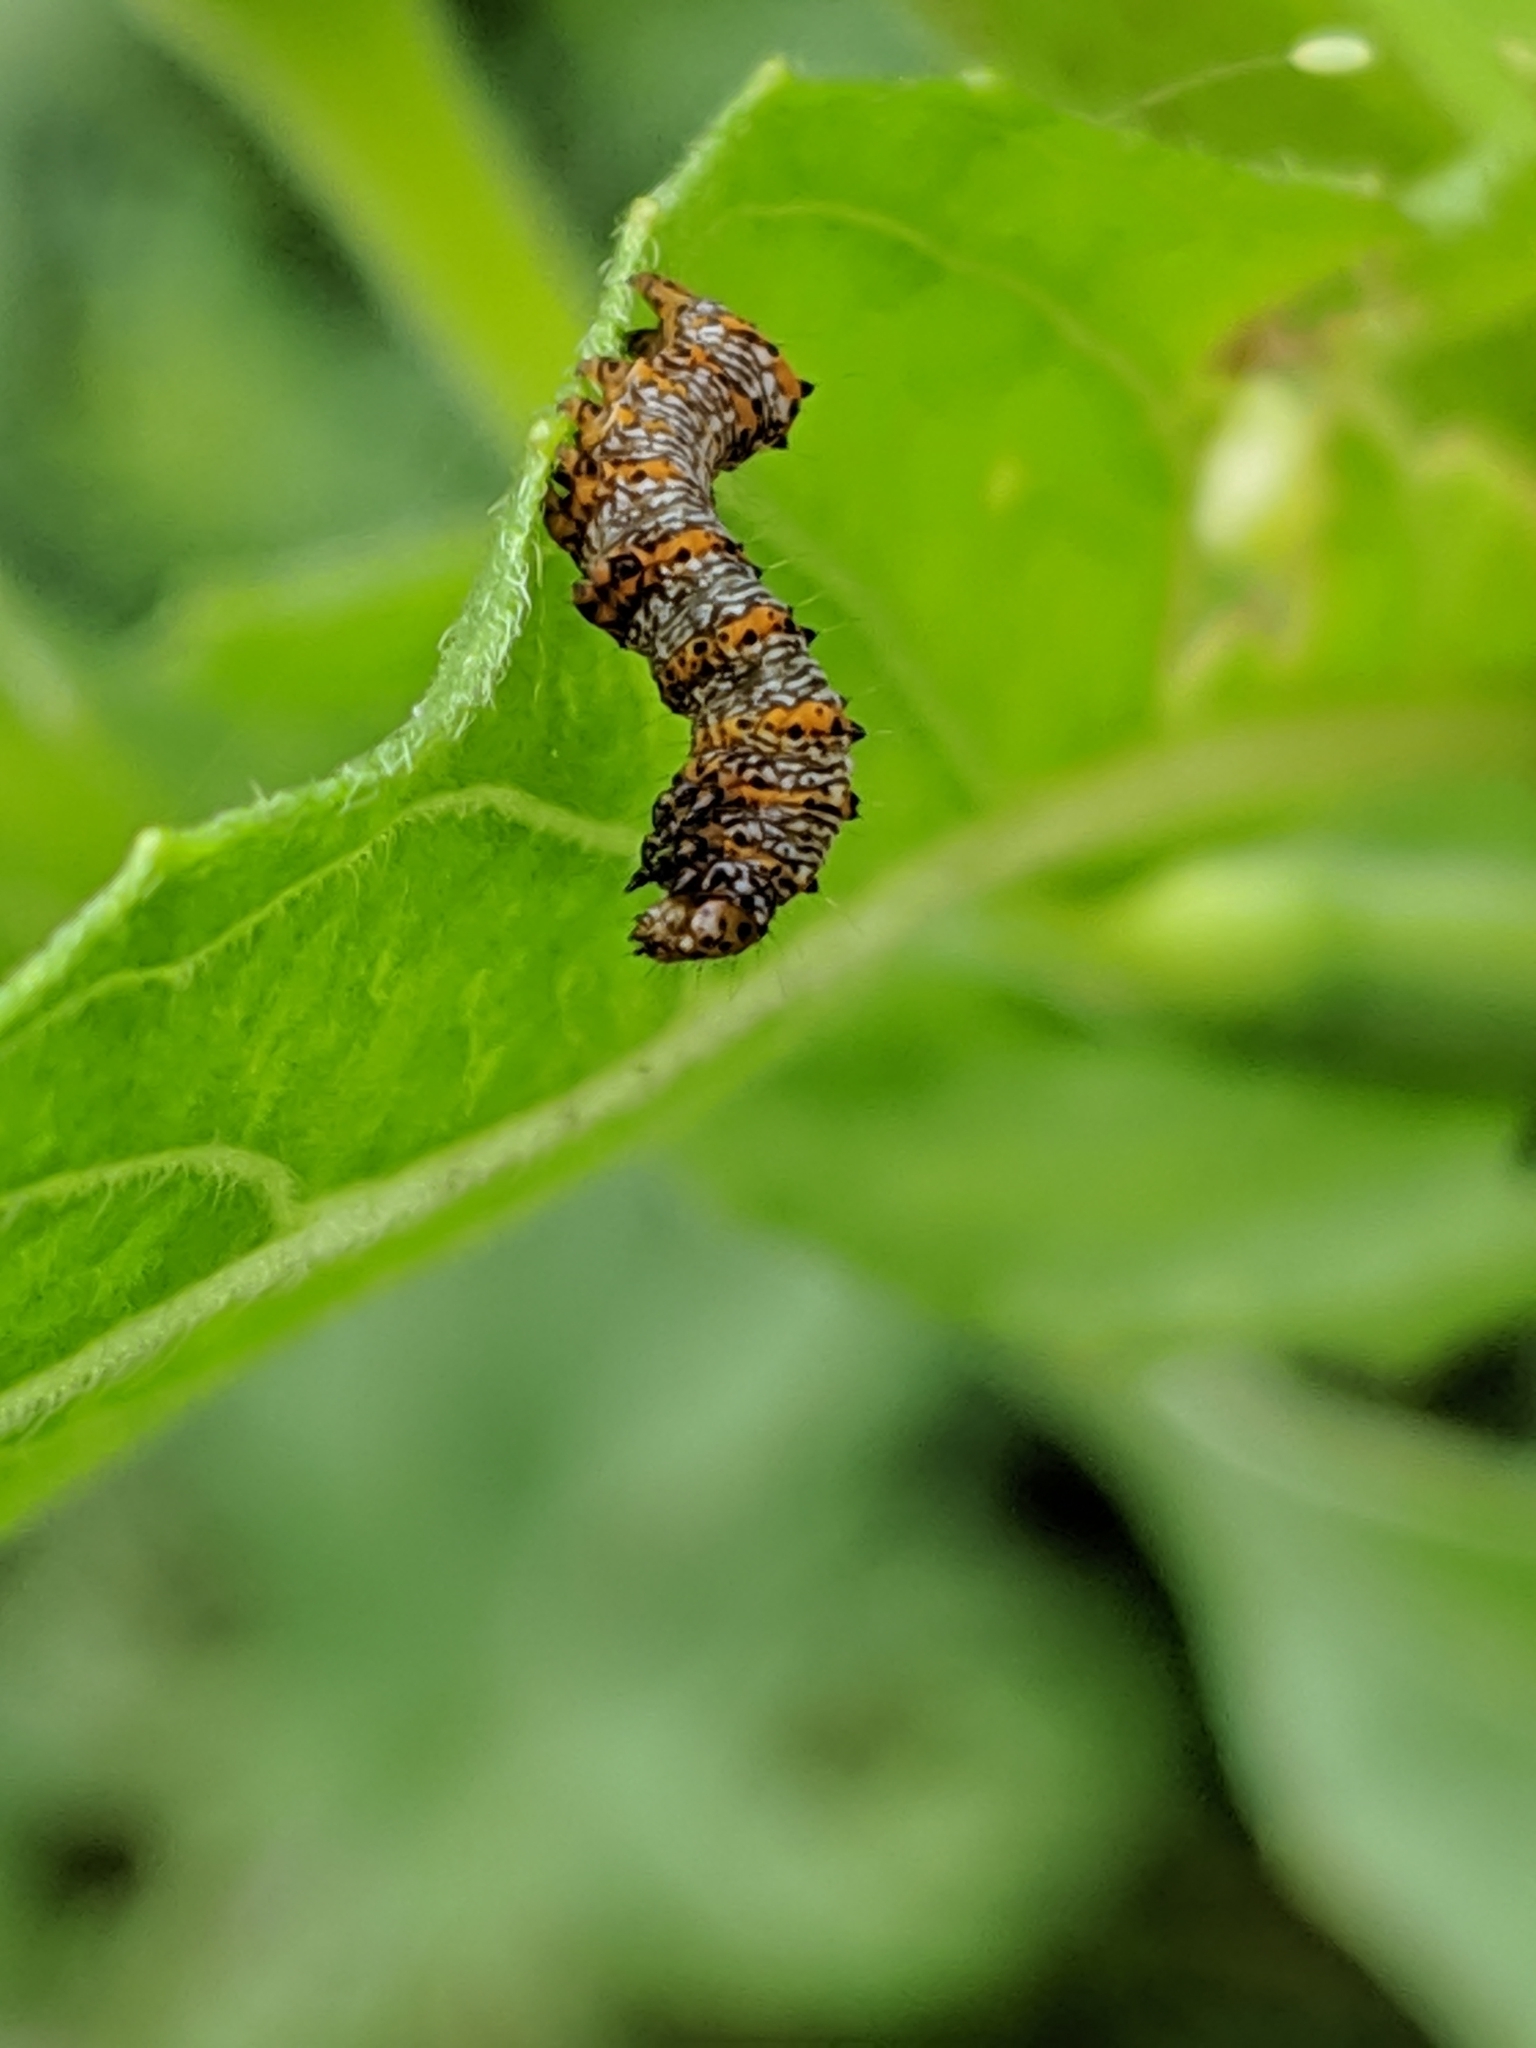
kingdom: Animalia
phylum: Arthropoda
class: Insecta
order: Lepidoptera
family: Noctuidae
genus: Alypia
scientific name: Alypia octomaculata
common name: Eight-spotted forester
